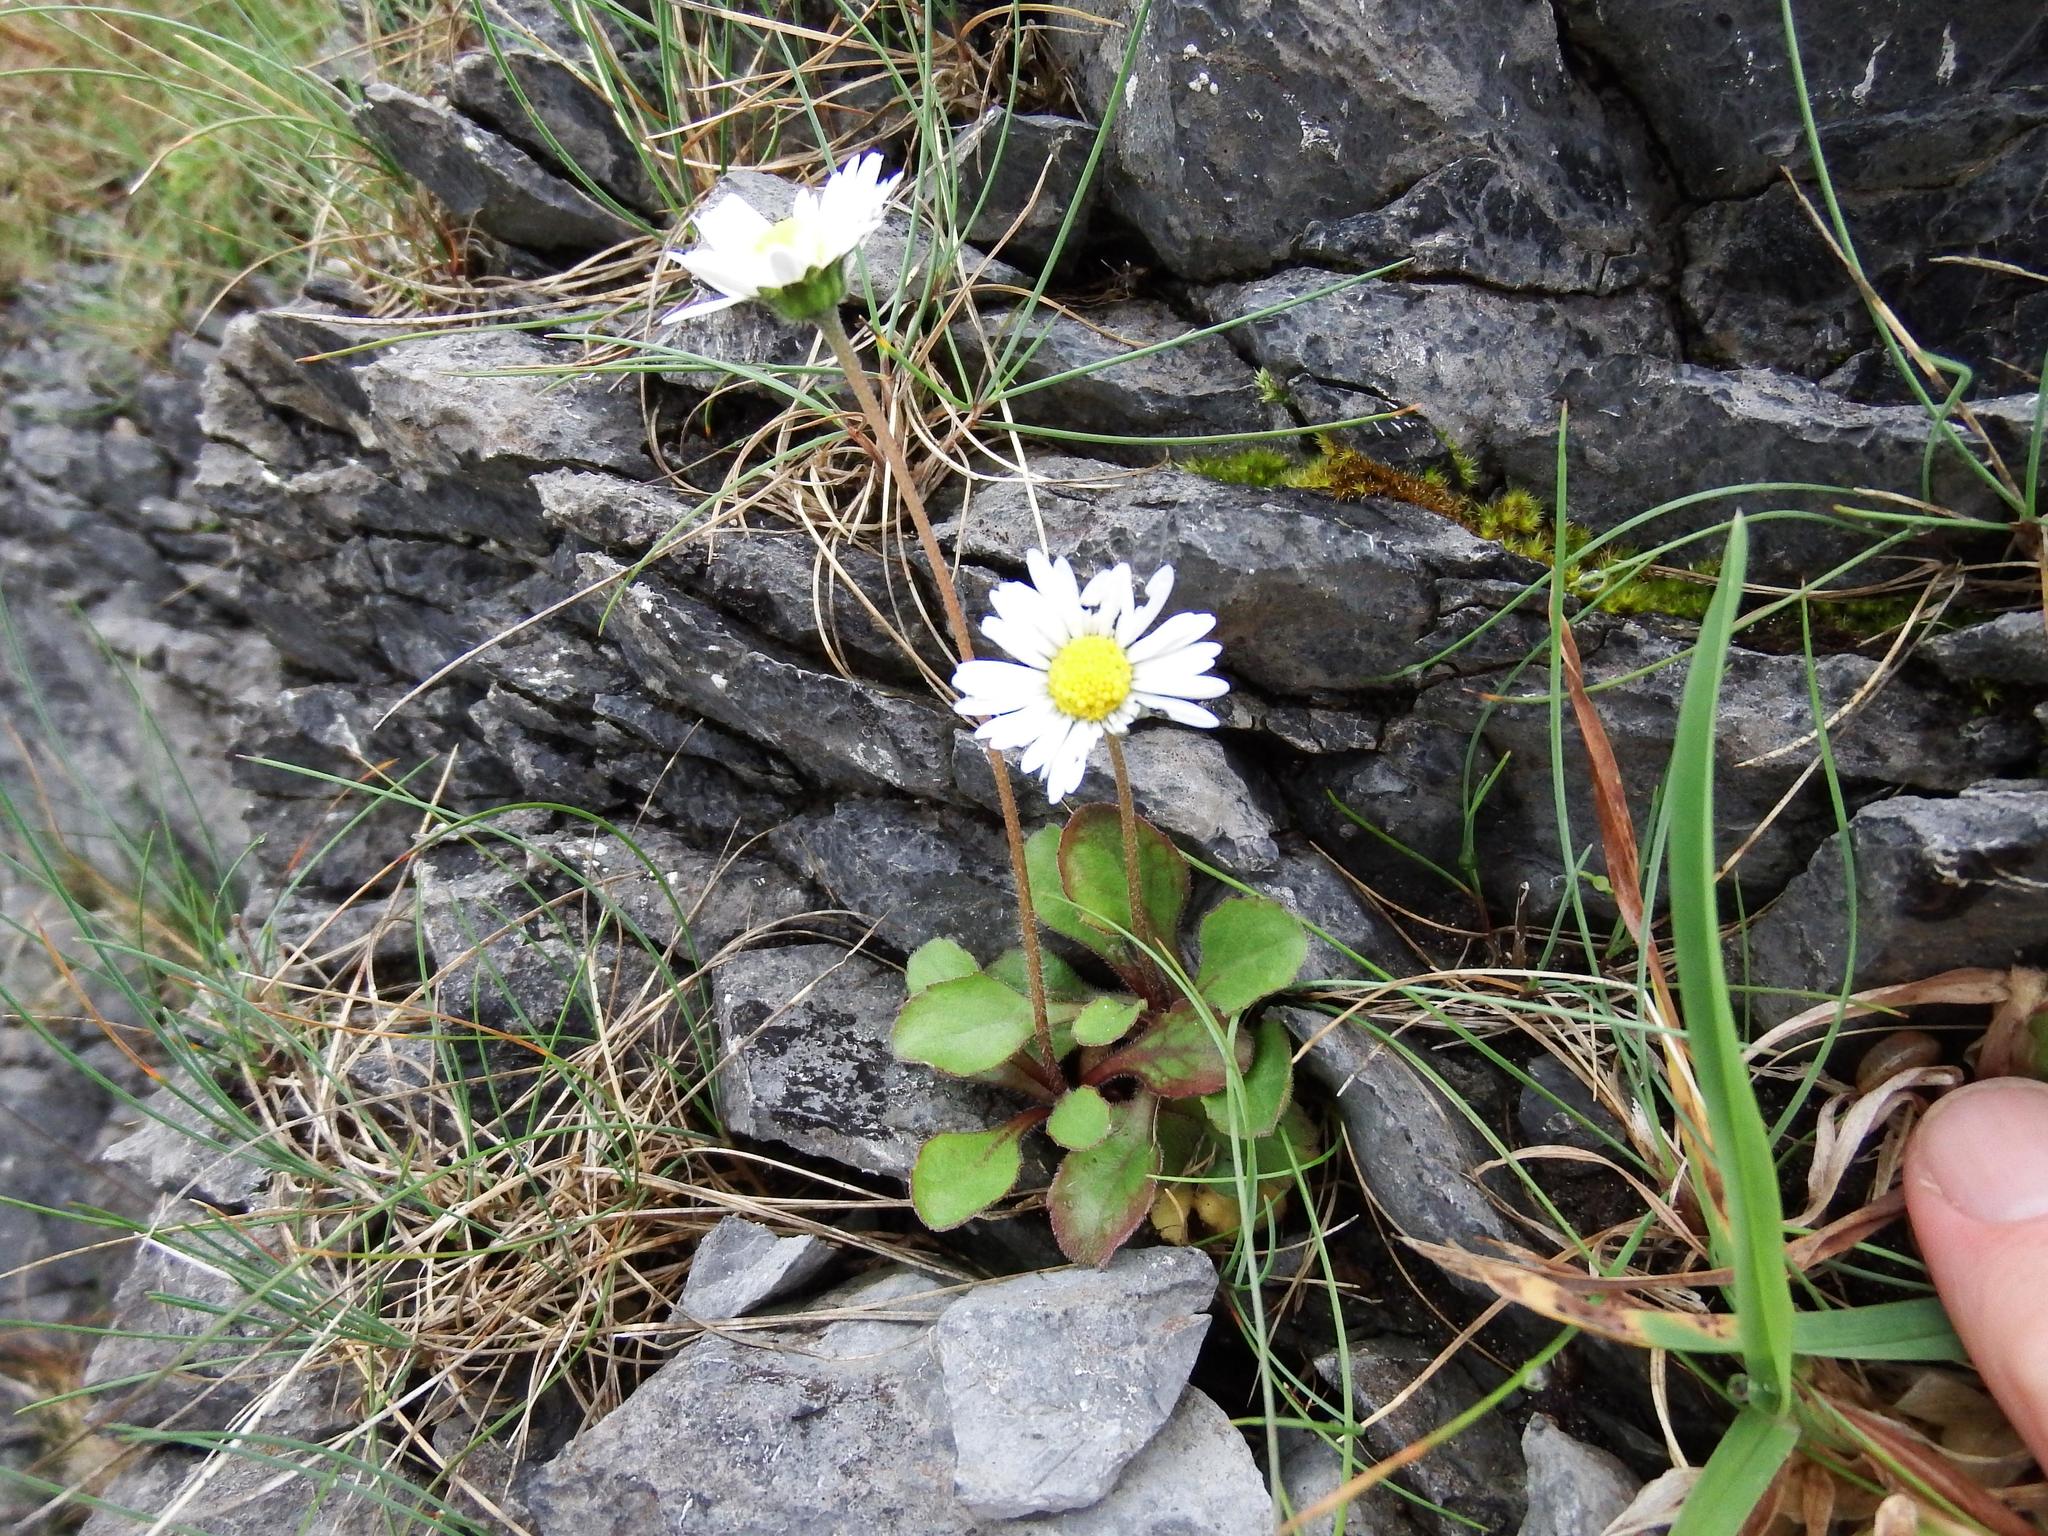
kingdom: Plantae
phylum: Tracheophyta
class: Magnoliopsida
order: Asterales
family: Asteraceae
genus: Bellis
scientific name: Bellis perennis
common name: Lawndaisy
